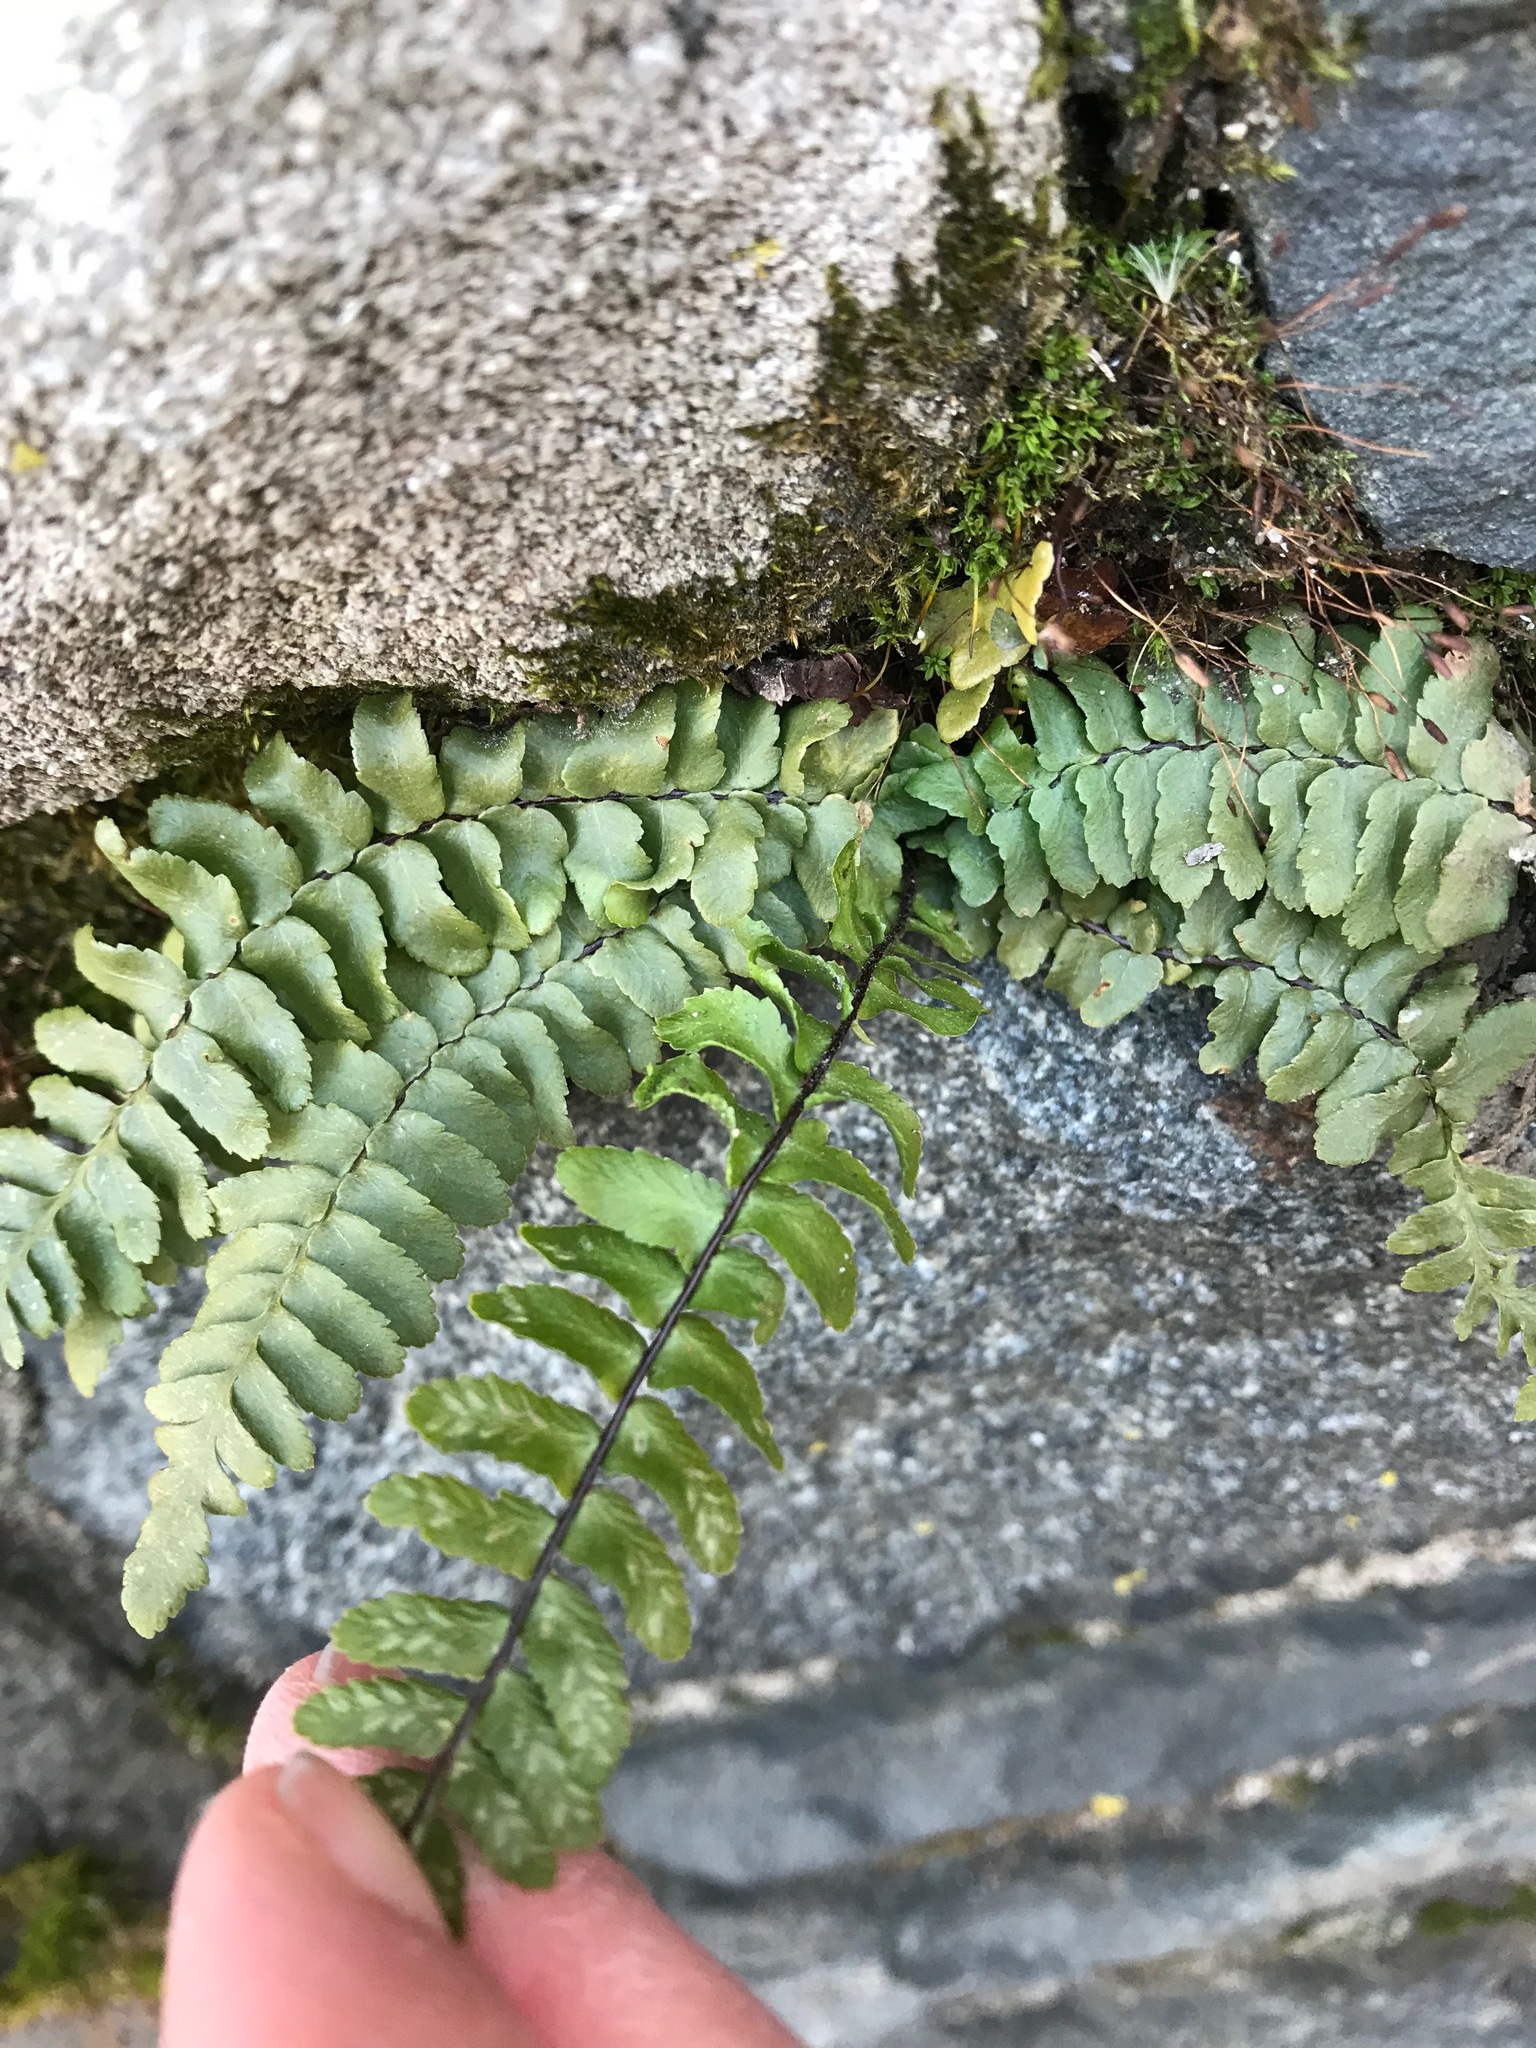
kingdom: Plantae
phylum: Tracheophyta
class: Polypodiopsida
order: Polypodiales
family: Aspleniaceae
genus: Asplenium
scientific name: Asplenium platyneuron
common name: Ebony spleenwort
